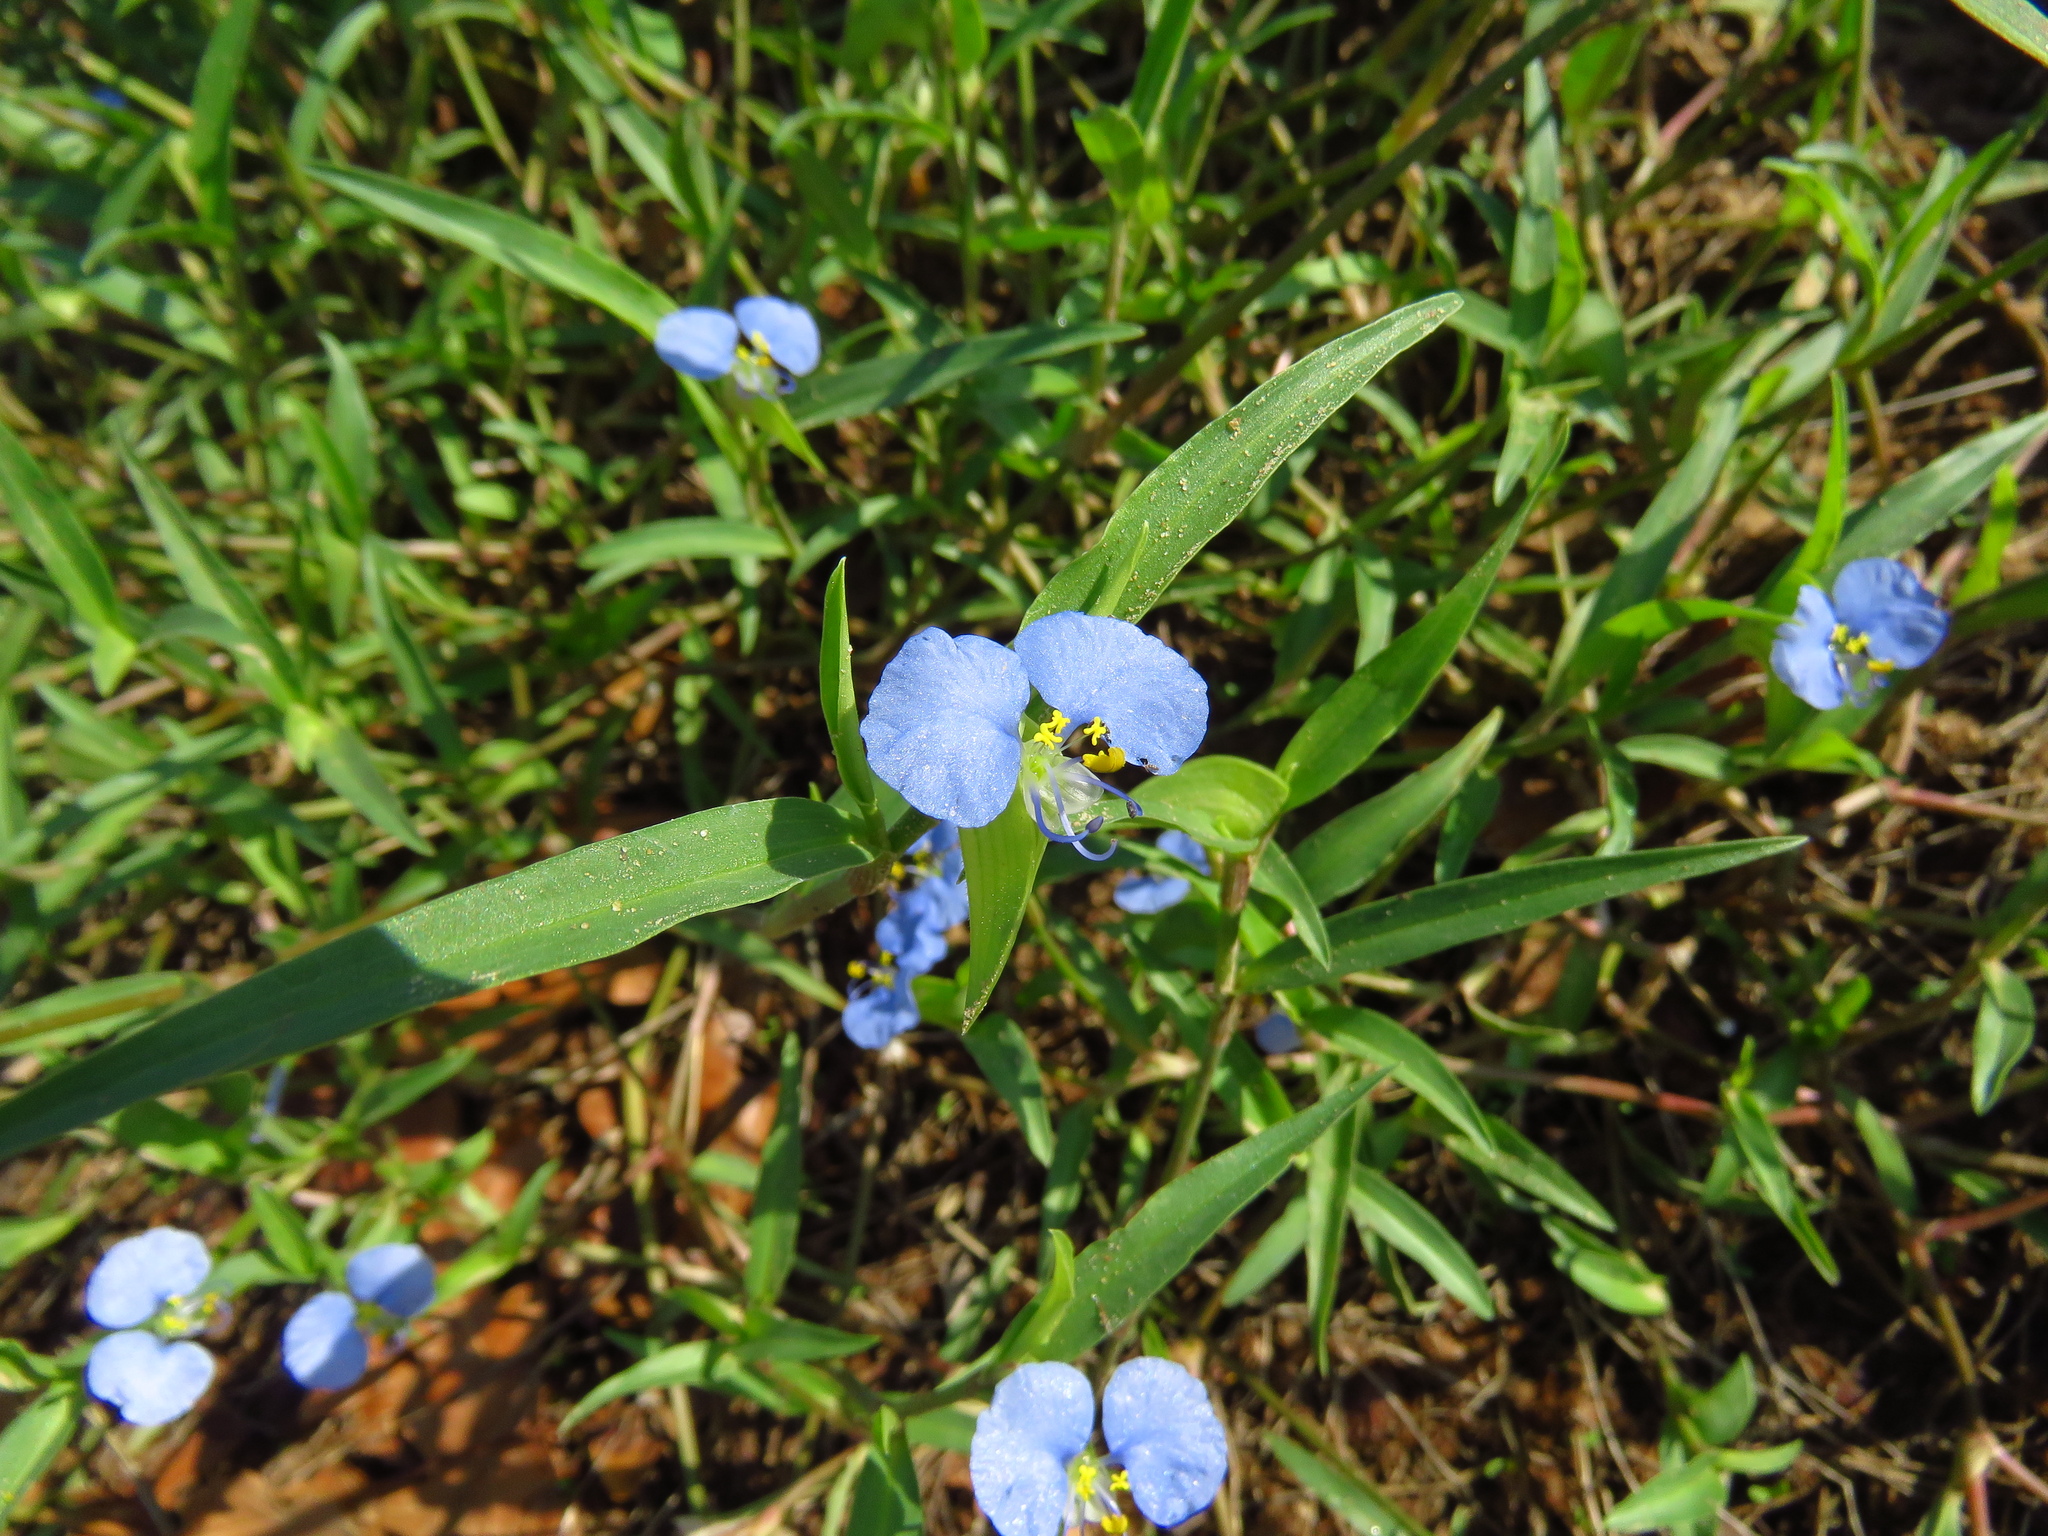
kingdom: Plantae
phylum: Tracheophyta
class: Liliopsida
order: Commelinales
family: Commelinaceae
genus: Commelina
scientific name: Commelina erecta
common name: Blousel blommetjie
